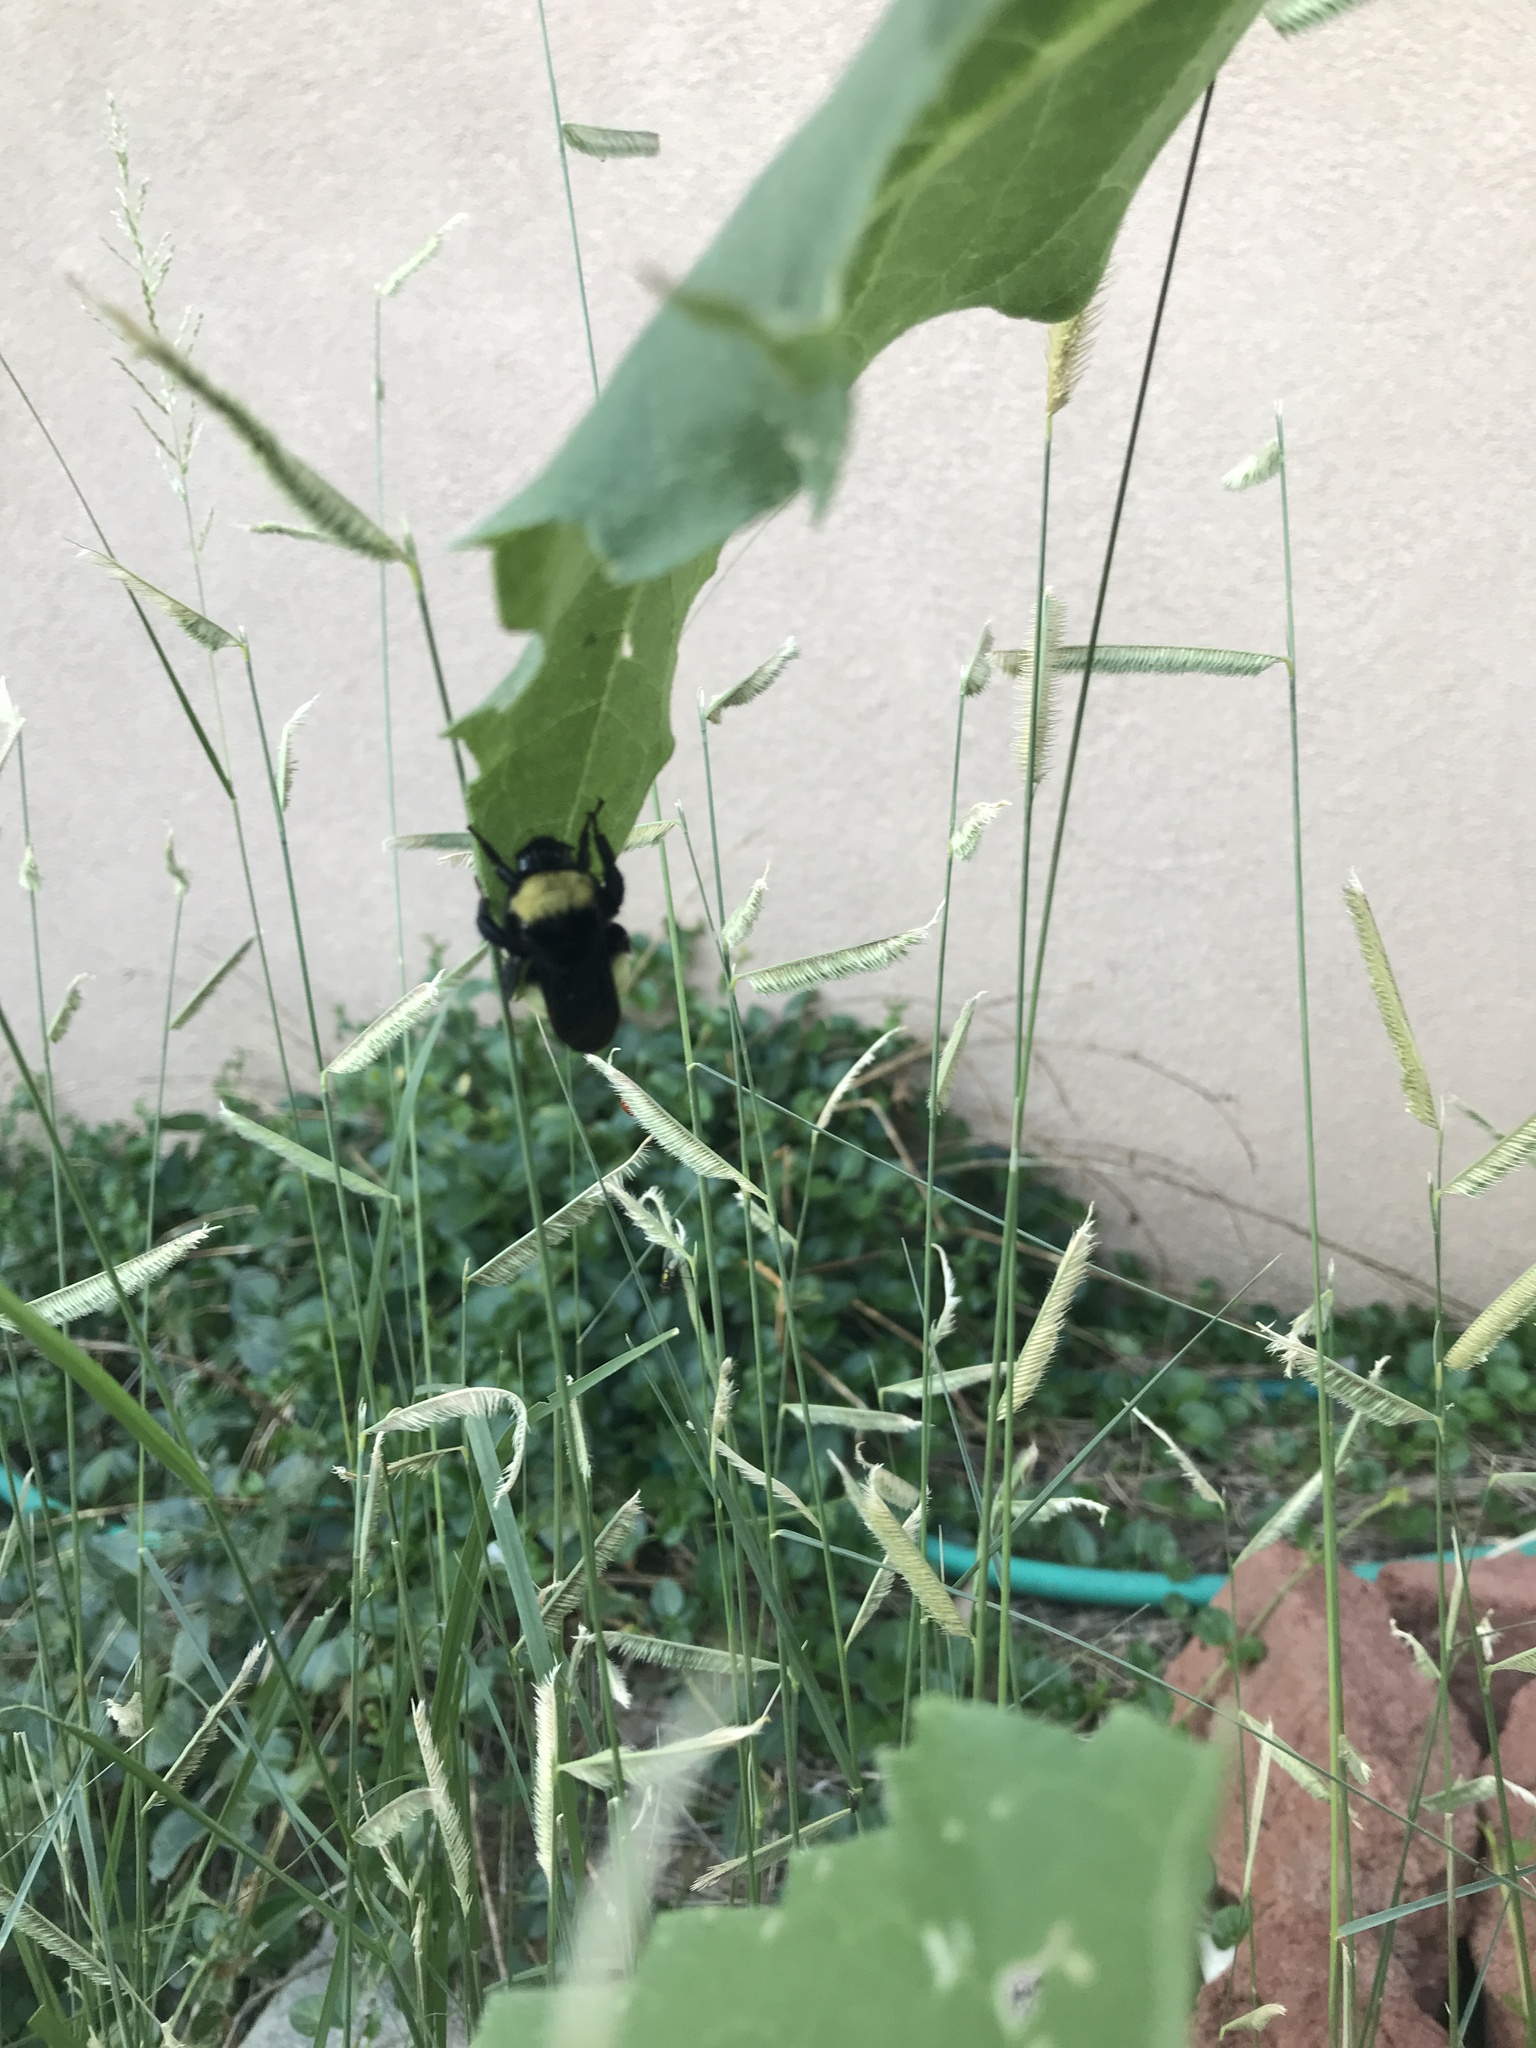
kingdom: Animalia
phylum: Arthropoda
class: Insecta
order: Hymenoptera
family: Apidae
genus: Bombus
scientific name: Bombus pensylvanicus
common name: Bumble bee
